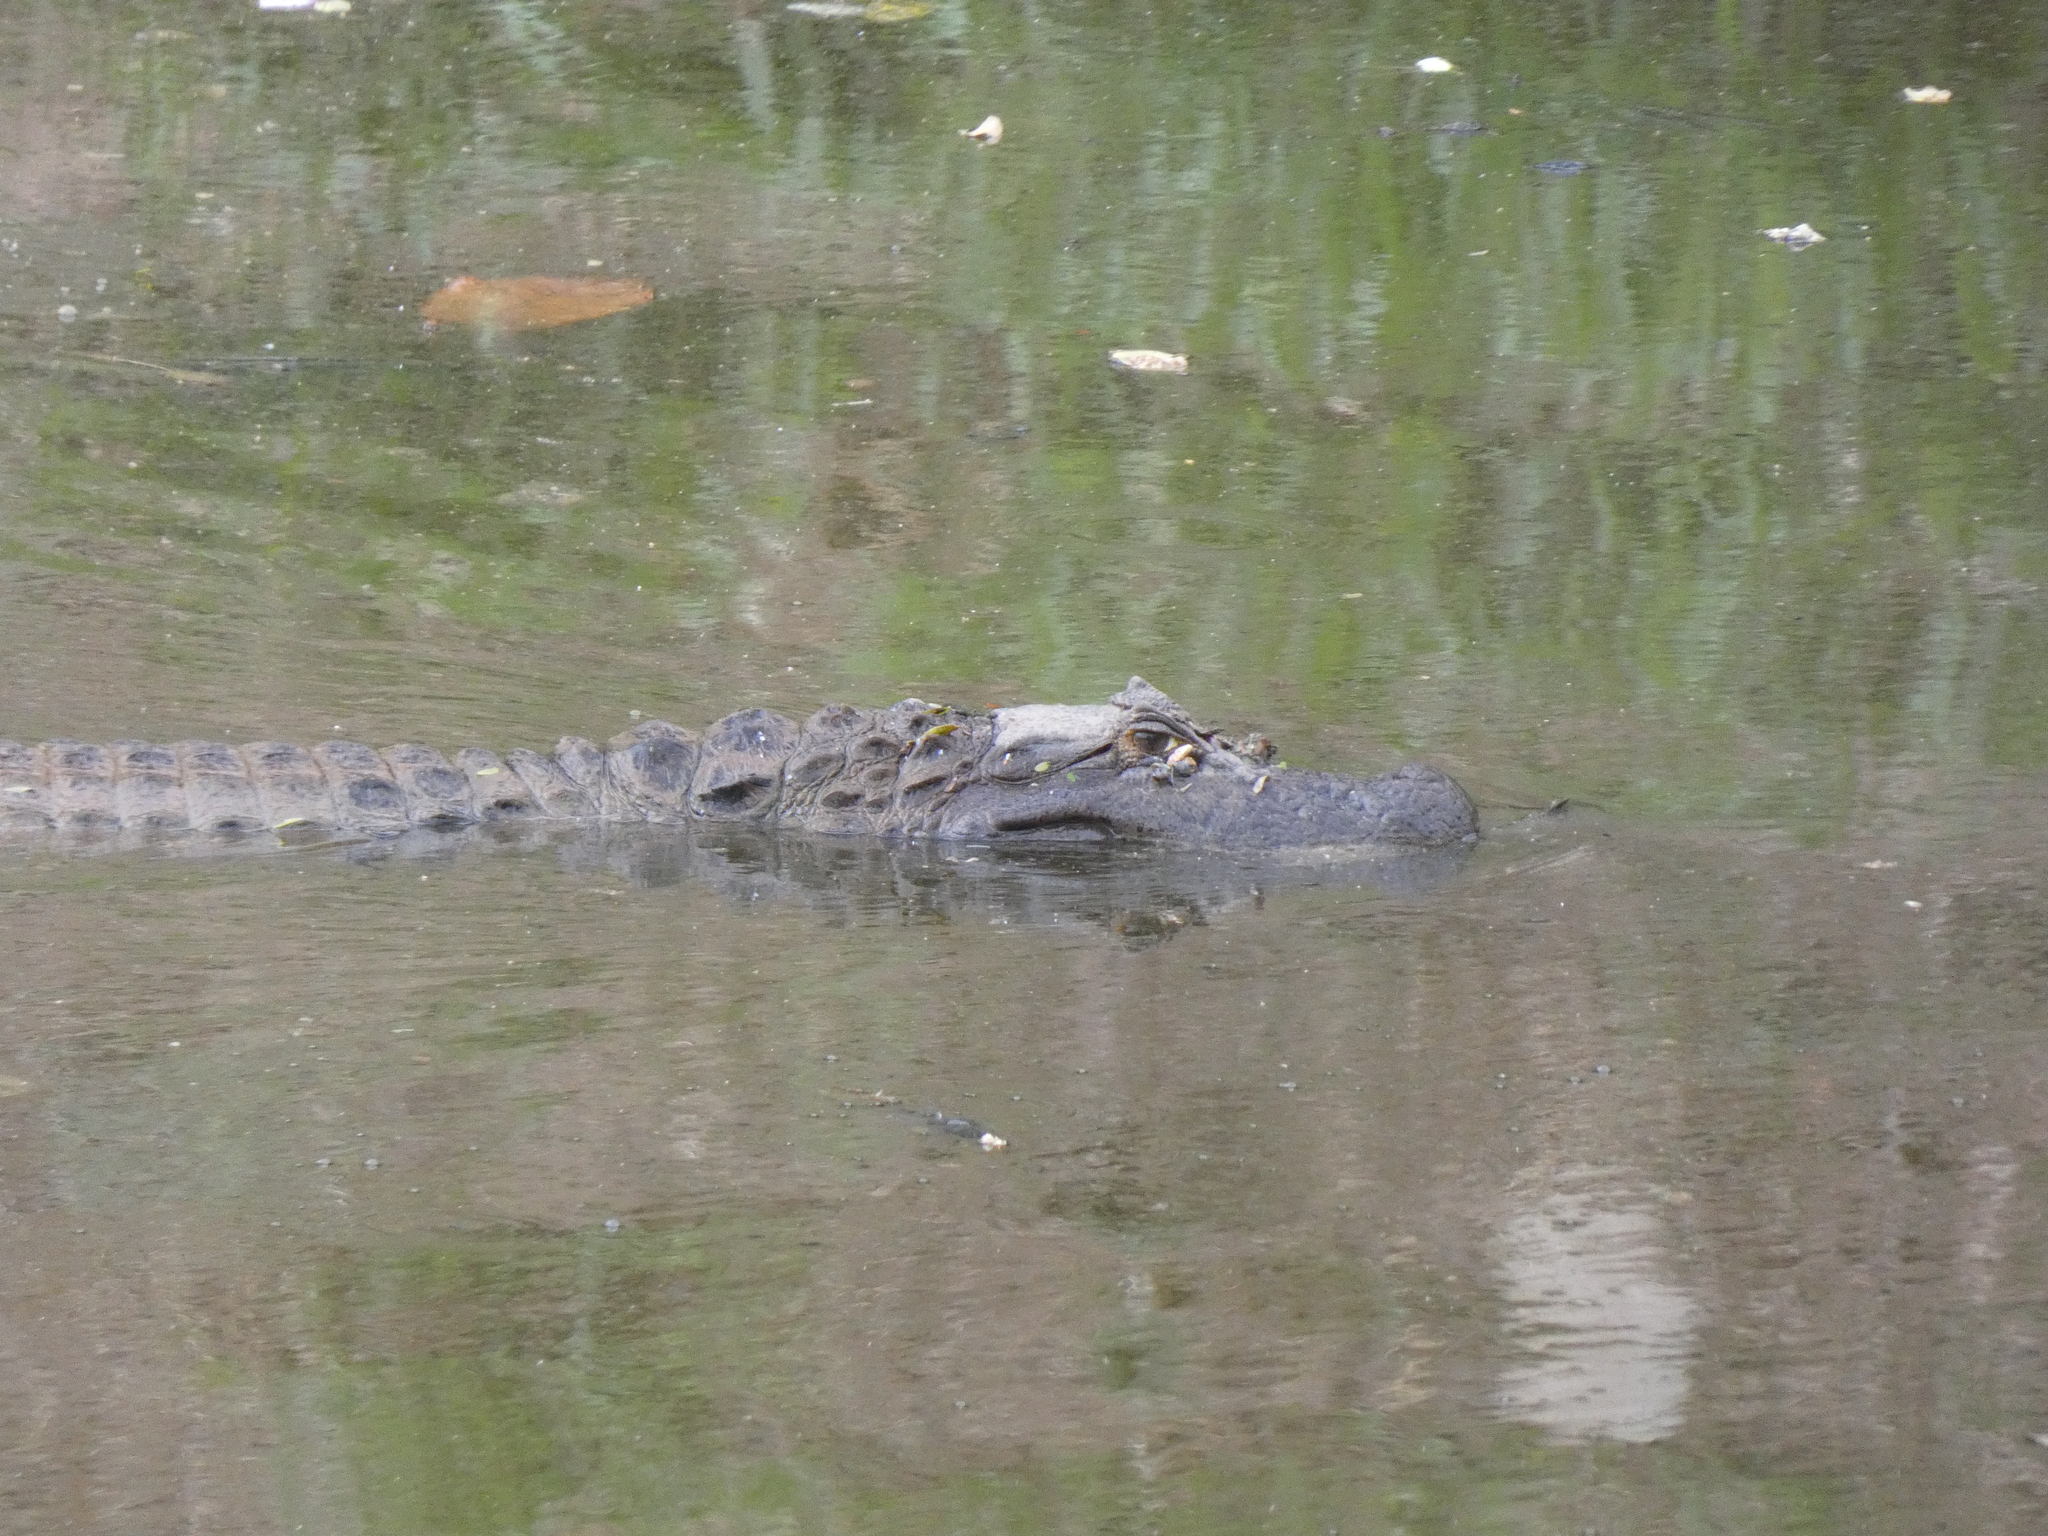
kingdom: Animalia
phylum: Chordata
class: Crocodylia
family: Alligatoridae
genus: Caiman
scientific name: Caiman latirostris
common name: Broad-snouted caiman
